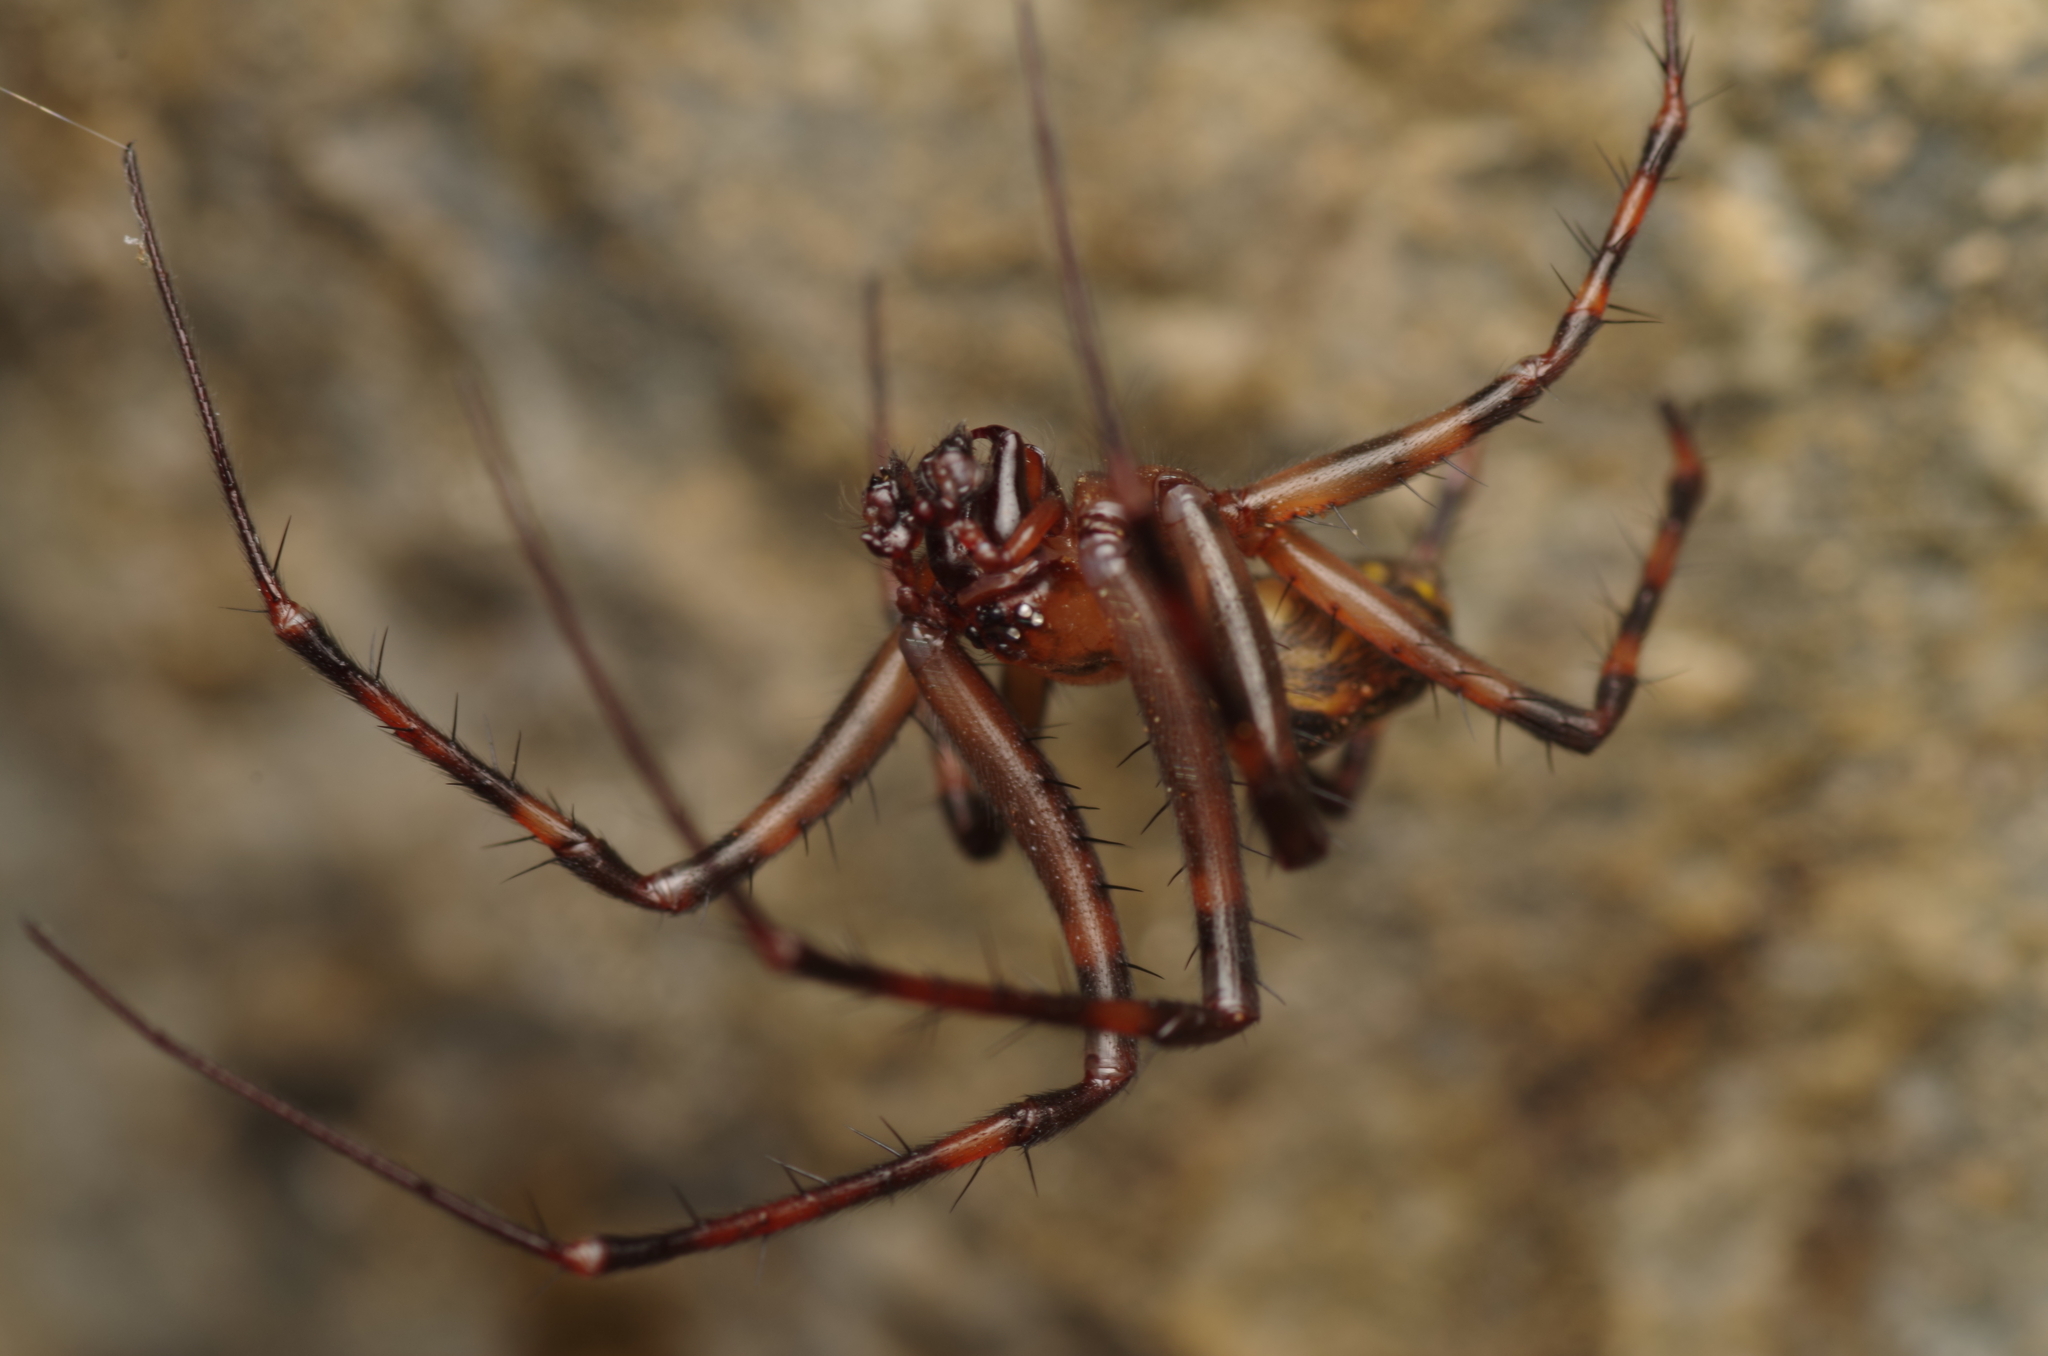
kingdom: Animalia
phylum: Arthropoda
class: Arachnida
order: Araneae
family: Tetragnathidae
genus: Meta
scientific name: Meta menardi
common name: Cave spider
